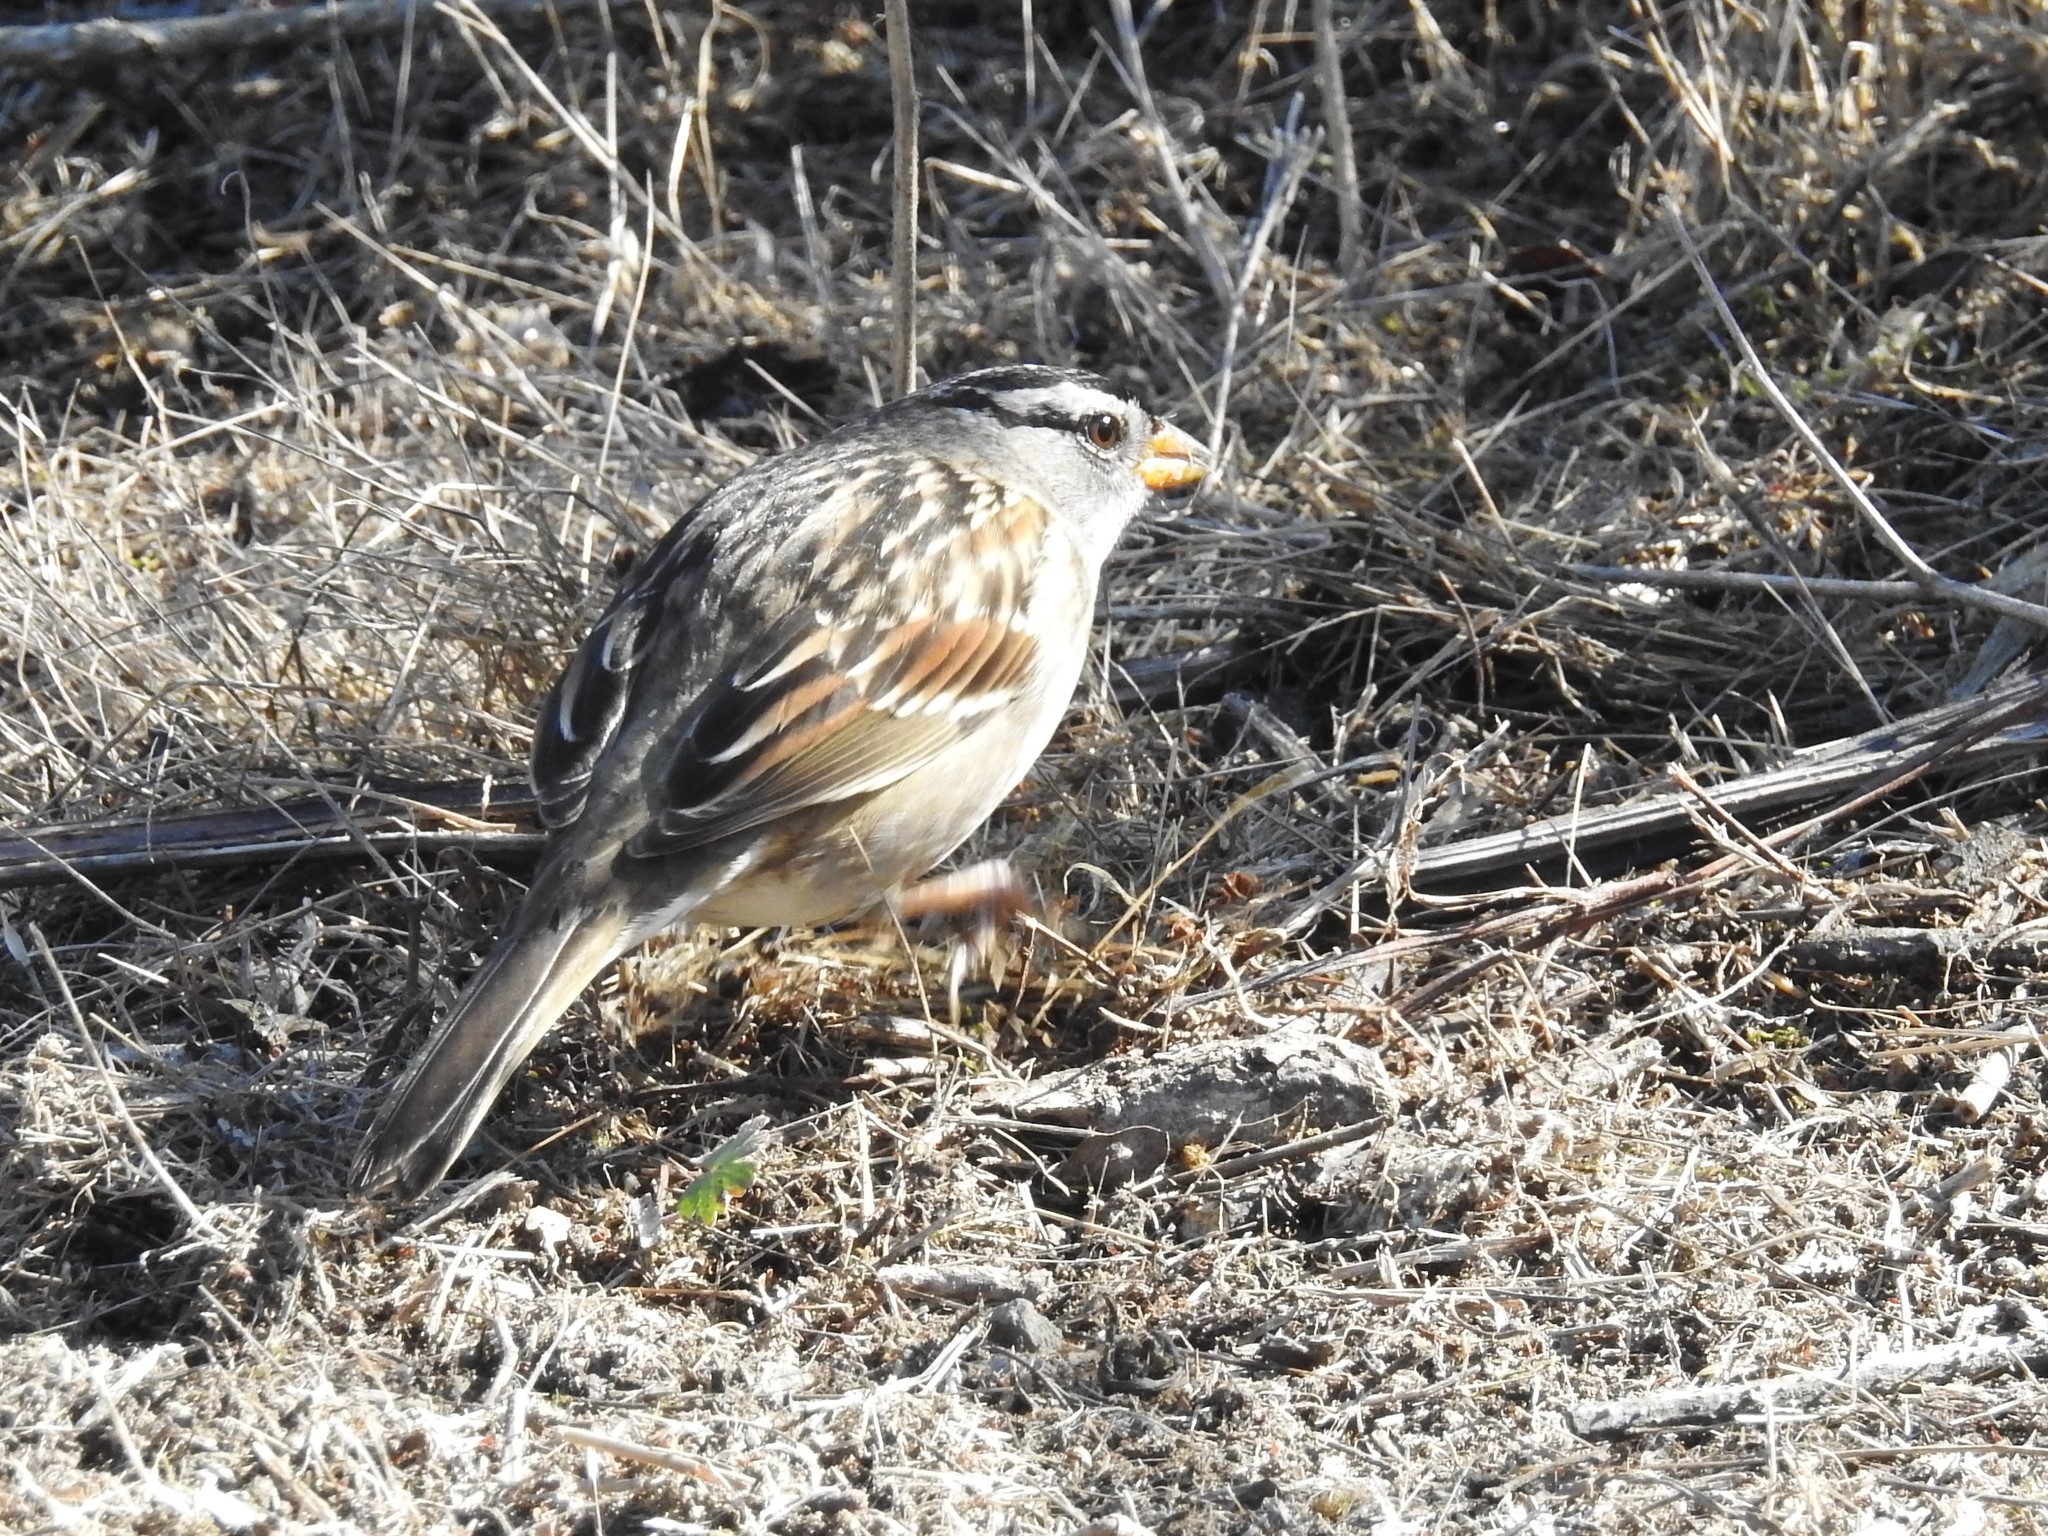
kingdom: Animalia
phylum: Chordata
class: Aves
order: Passeriformes
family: Passerellidae
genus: Zonotrichia
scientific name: Zonotrichia leucophrys
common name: White-crowned sparrow
